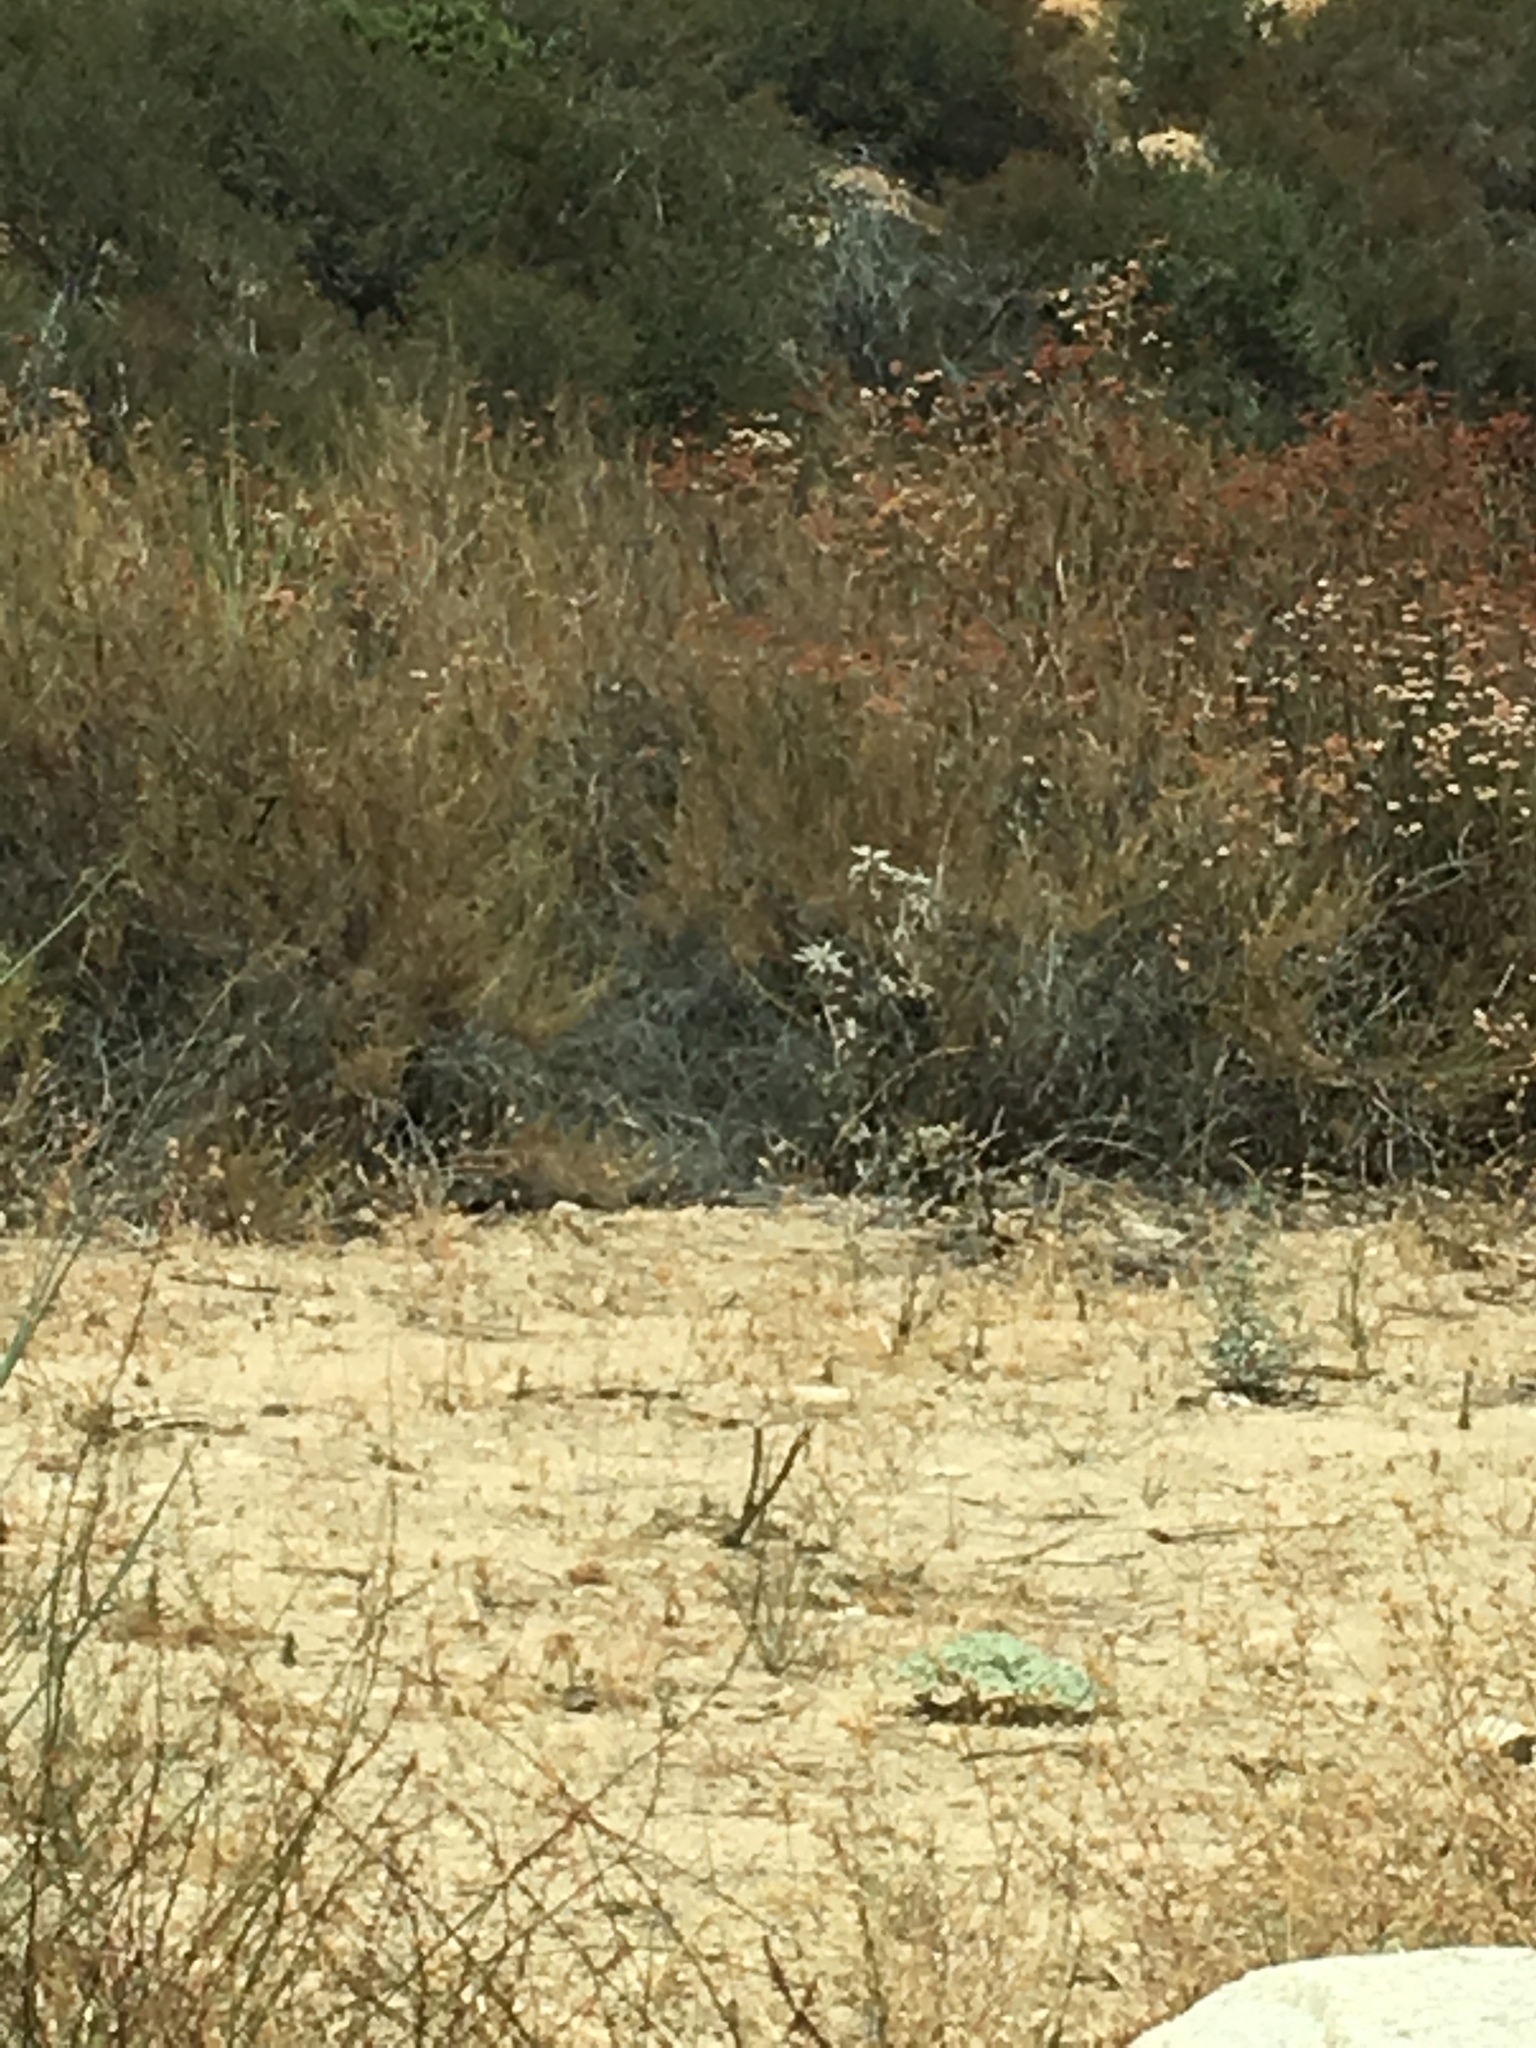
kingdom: Plantae
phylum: Tracheophyta
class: Magnoliopsida
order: Lamiales
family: Lamiaceae
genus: Salvia
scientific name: Salvia apiana
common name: White sage
